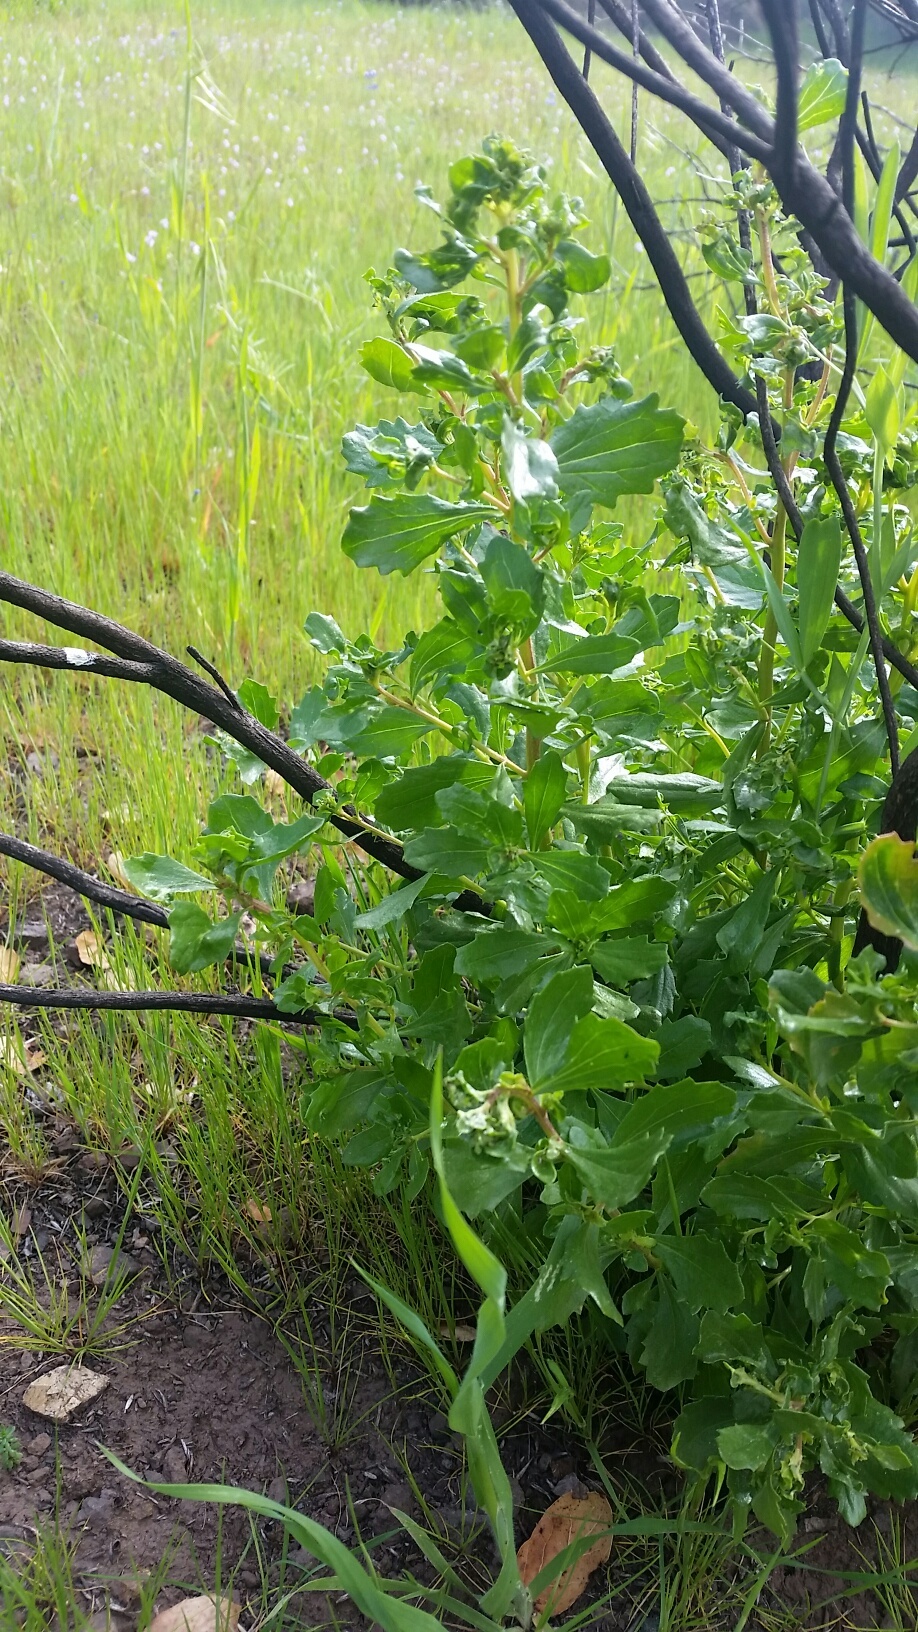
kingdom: Plantae
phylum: Tracheophyta
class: Magnoliopsida
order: Asterales
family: Asteraceae
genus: Baccharis
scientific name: Baccharis pilularis
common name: Coyotebrush
